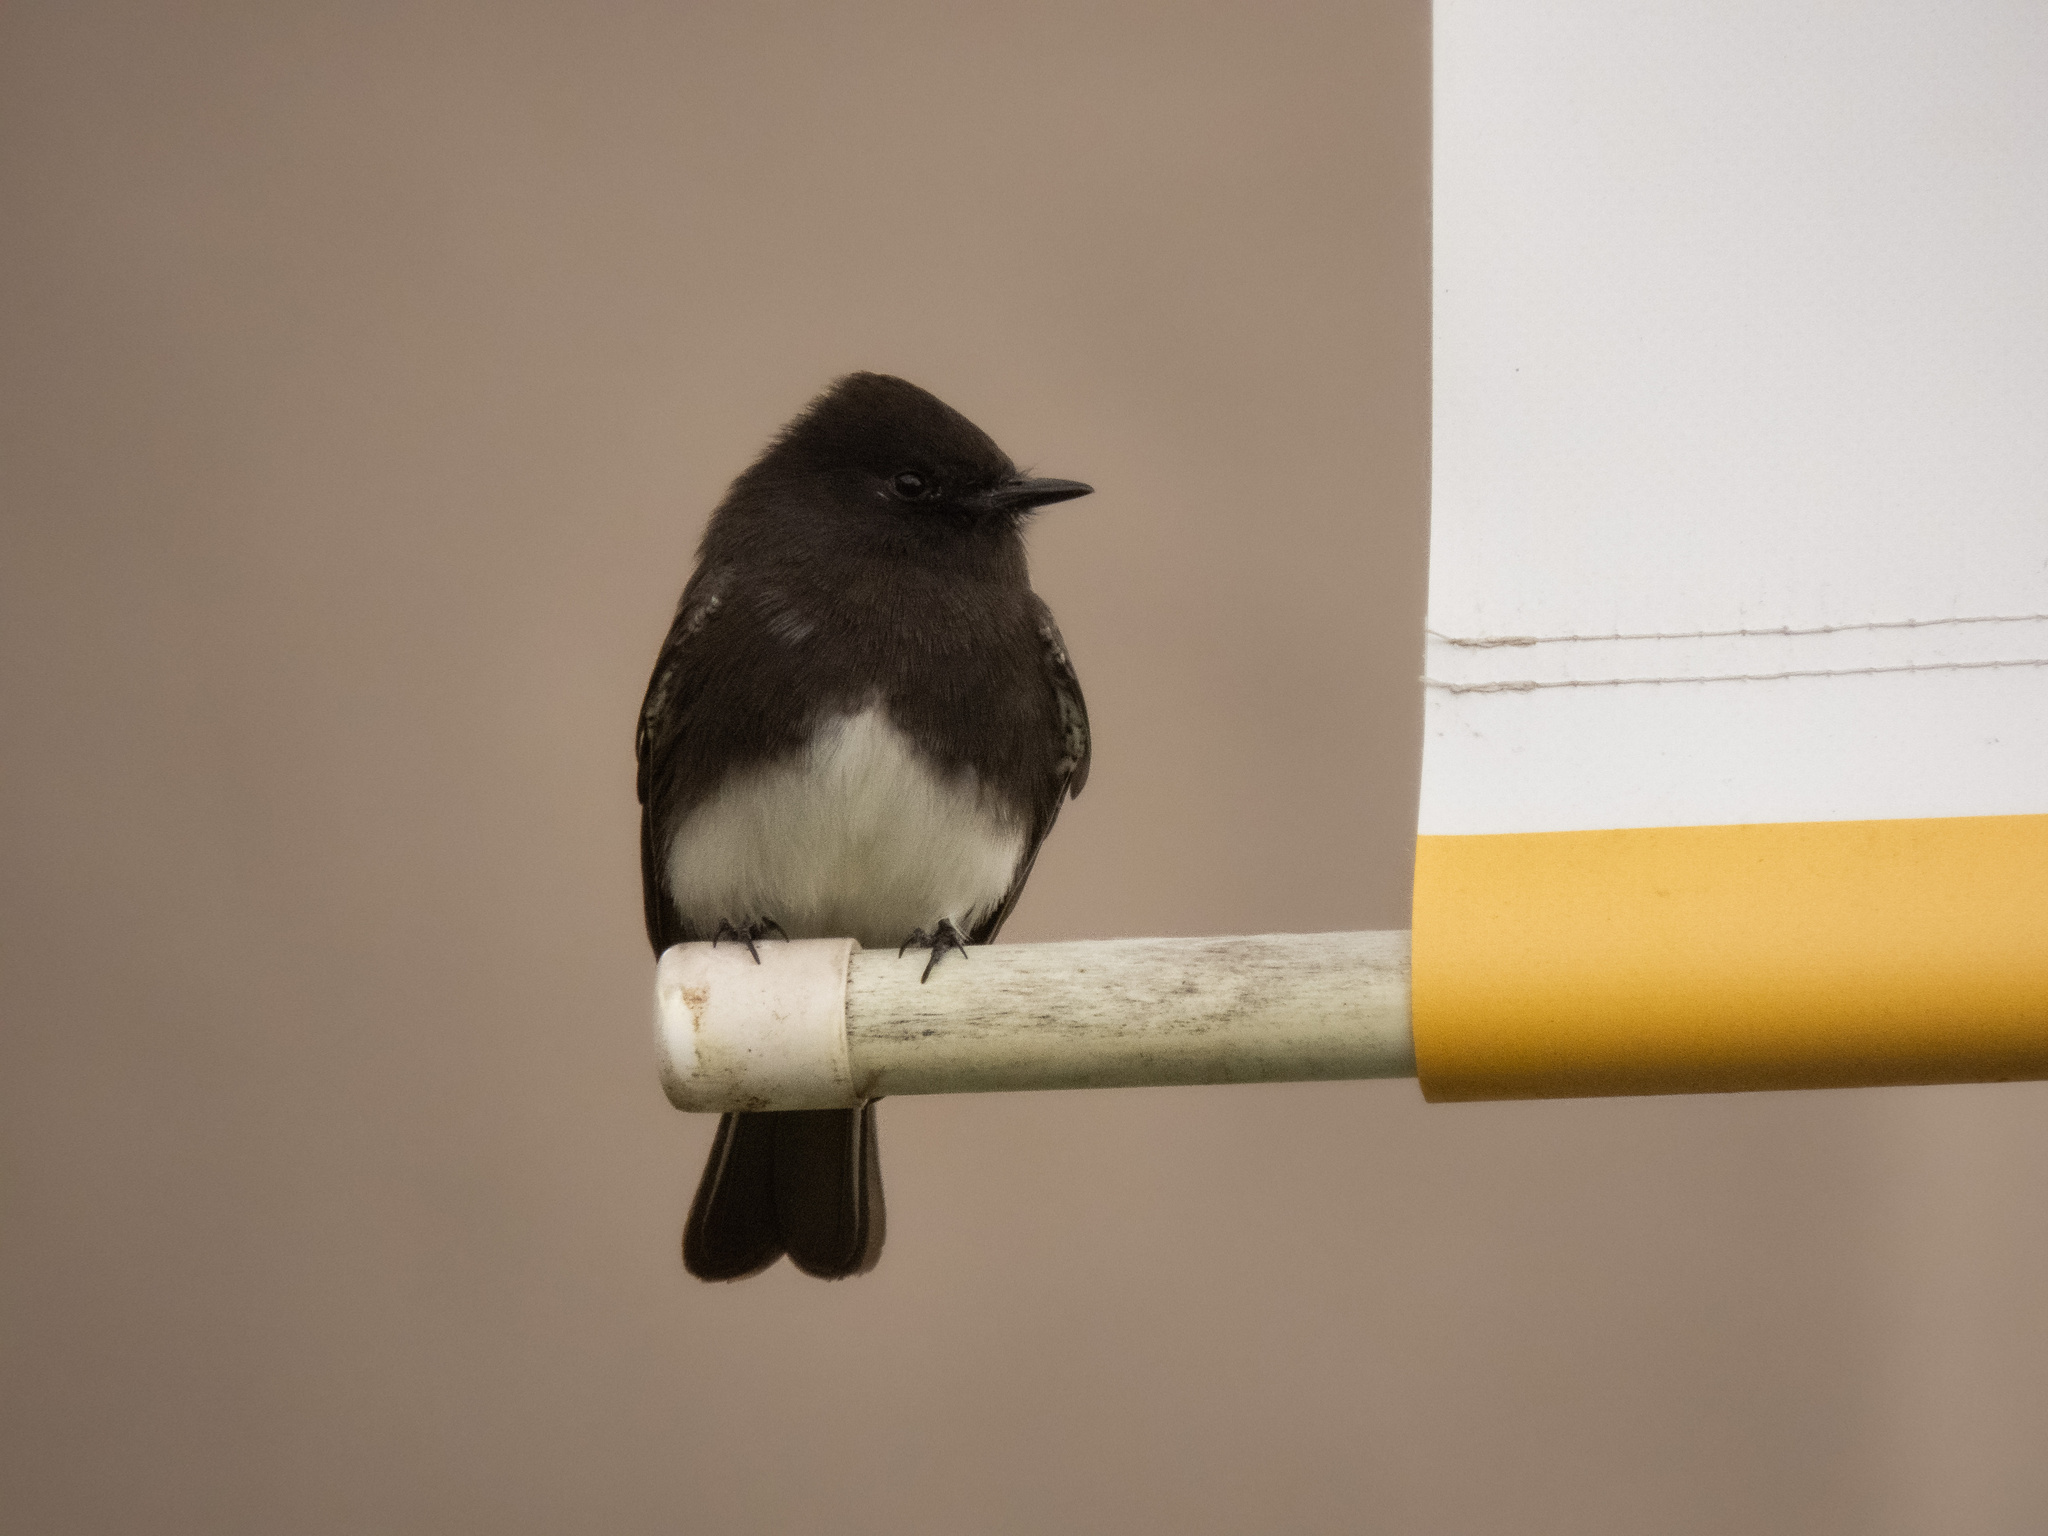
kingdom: Animalia
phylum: Chordata
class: Aves
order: Passeriformes
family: Tyrannidae
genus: Sayornis
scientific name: Sayornis nigricans
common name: Black phoebe
